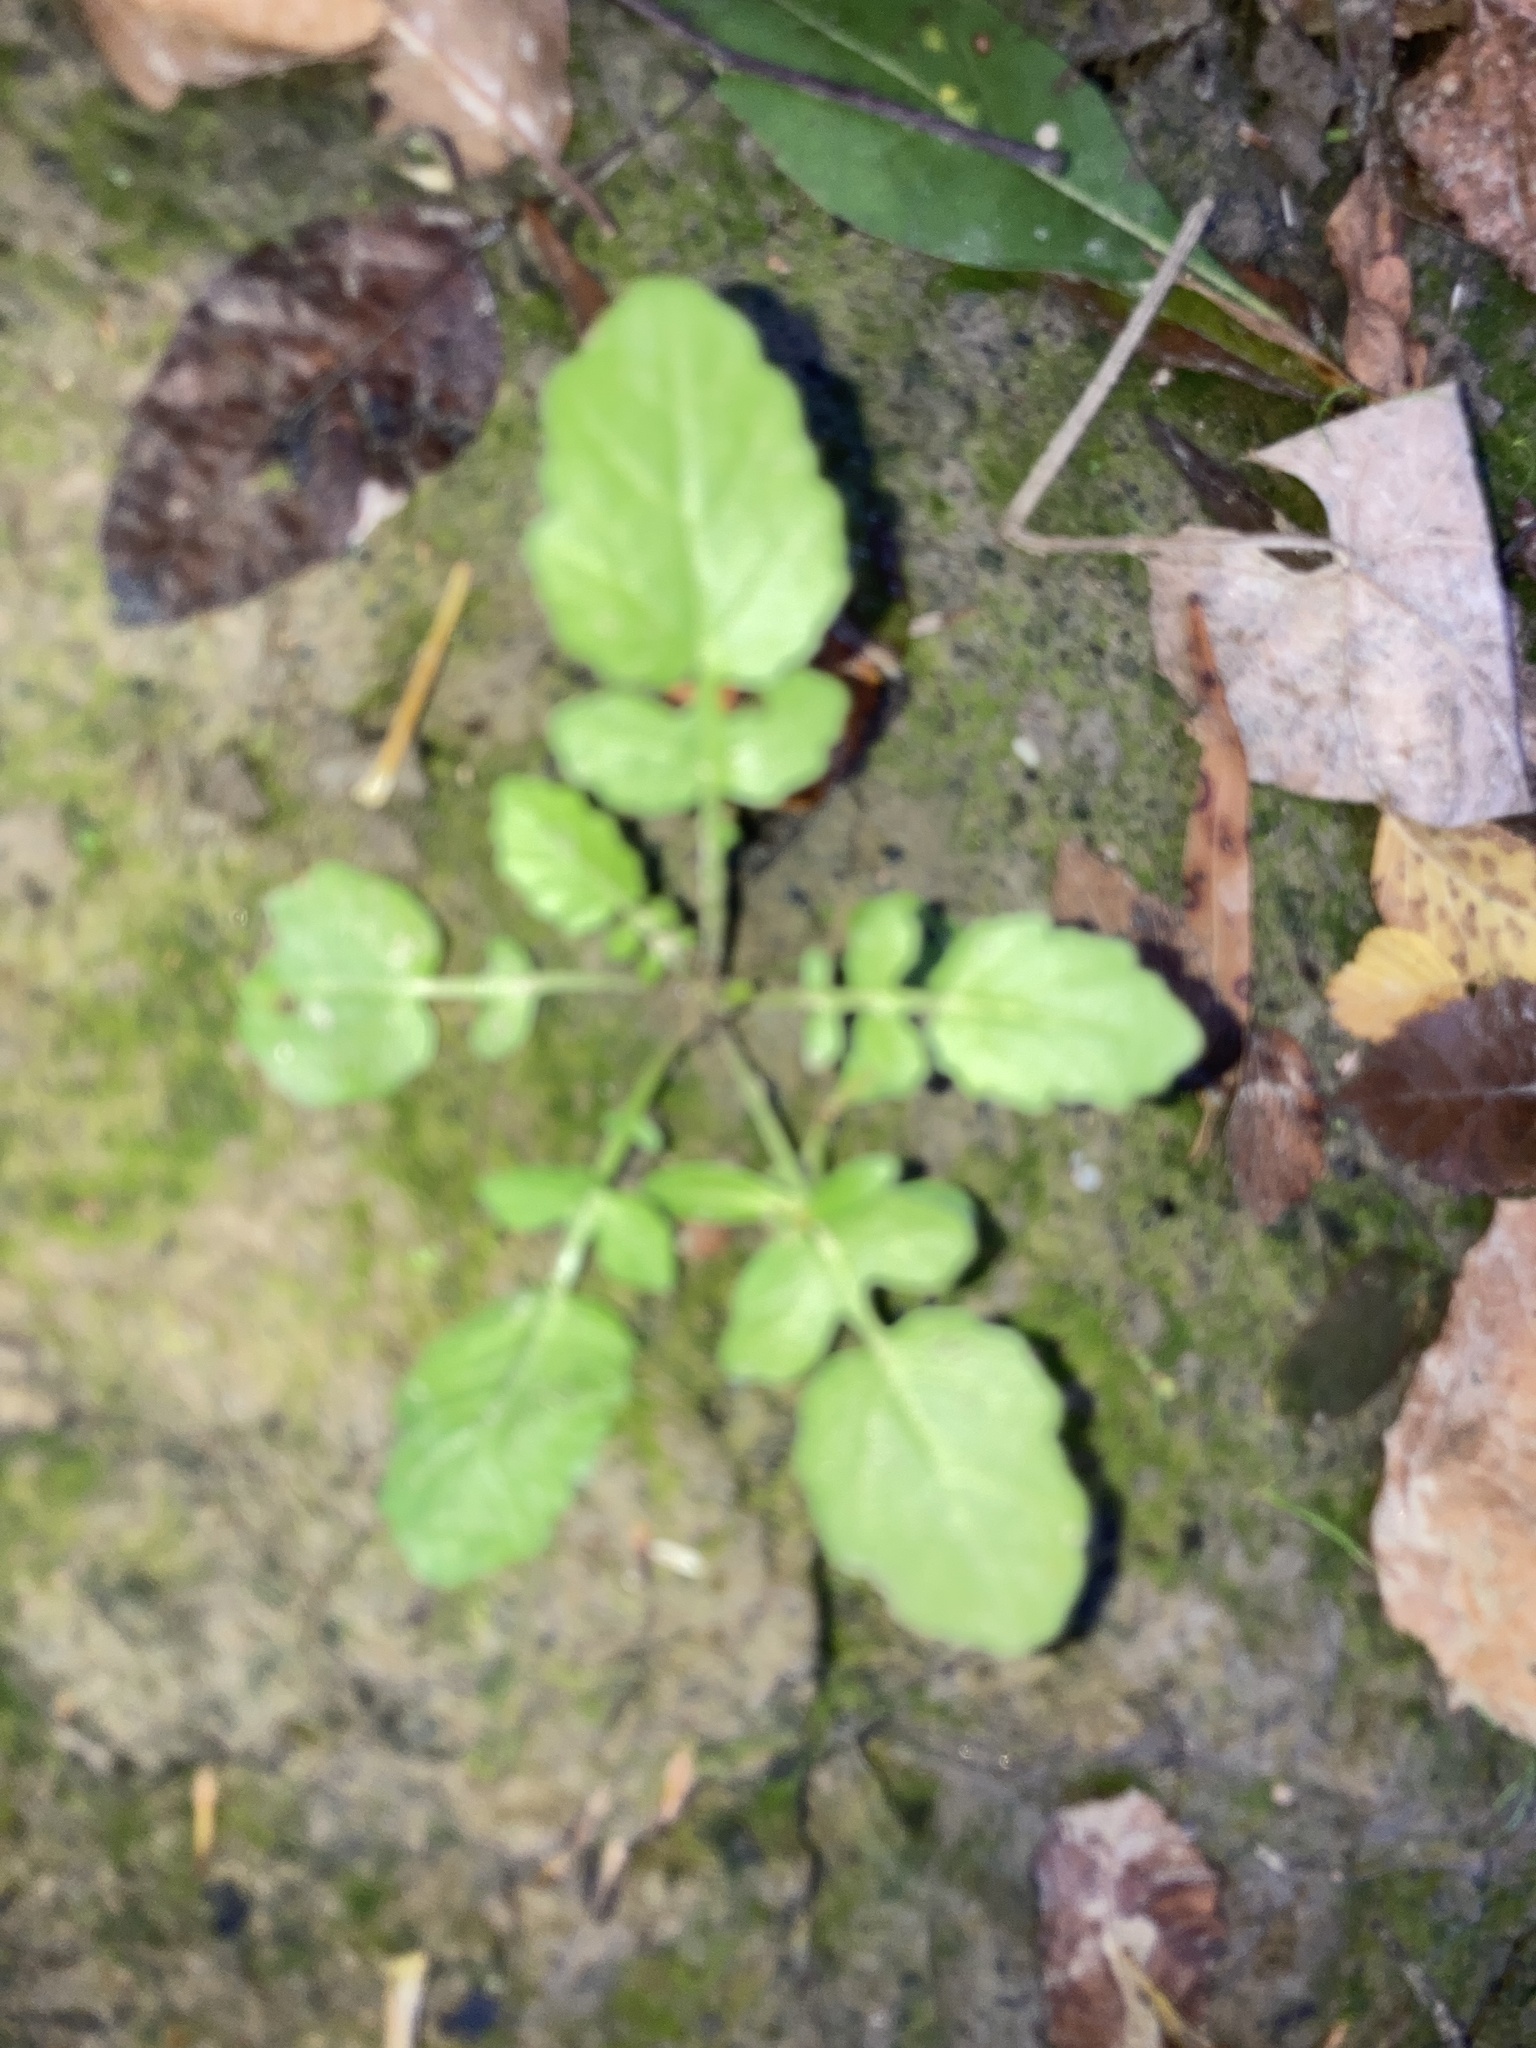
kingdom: Plantae
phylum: Tracheophyta
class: Magnoliopsida
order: Asterales
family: Asteraceae
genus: Youngia
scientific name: Youngia japonica
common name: Oriental false hawksbeard
